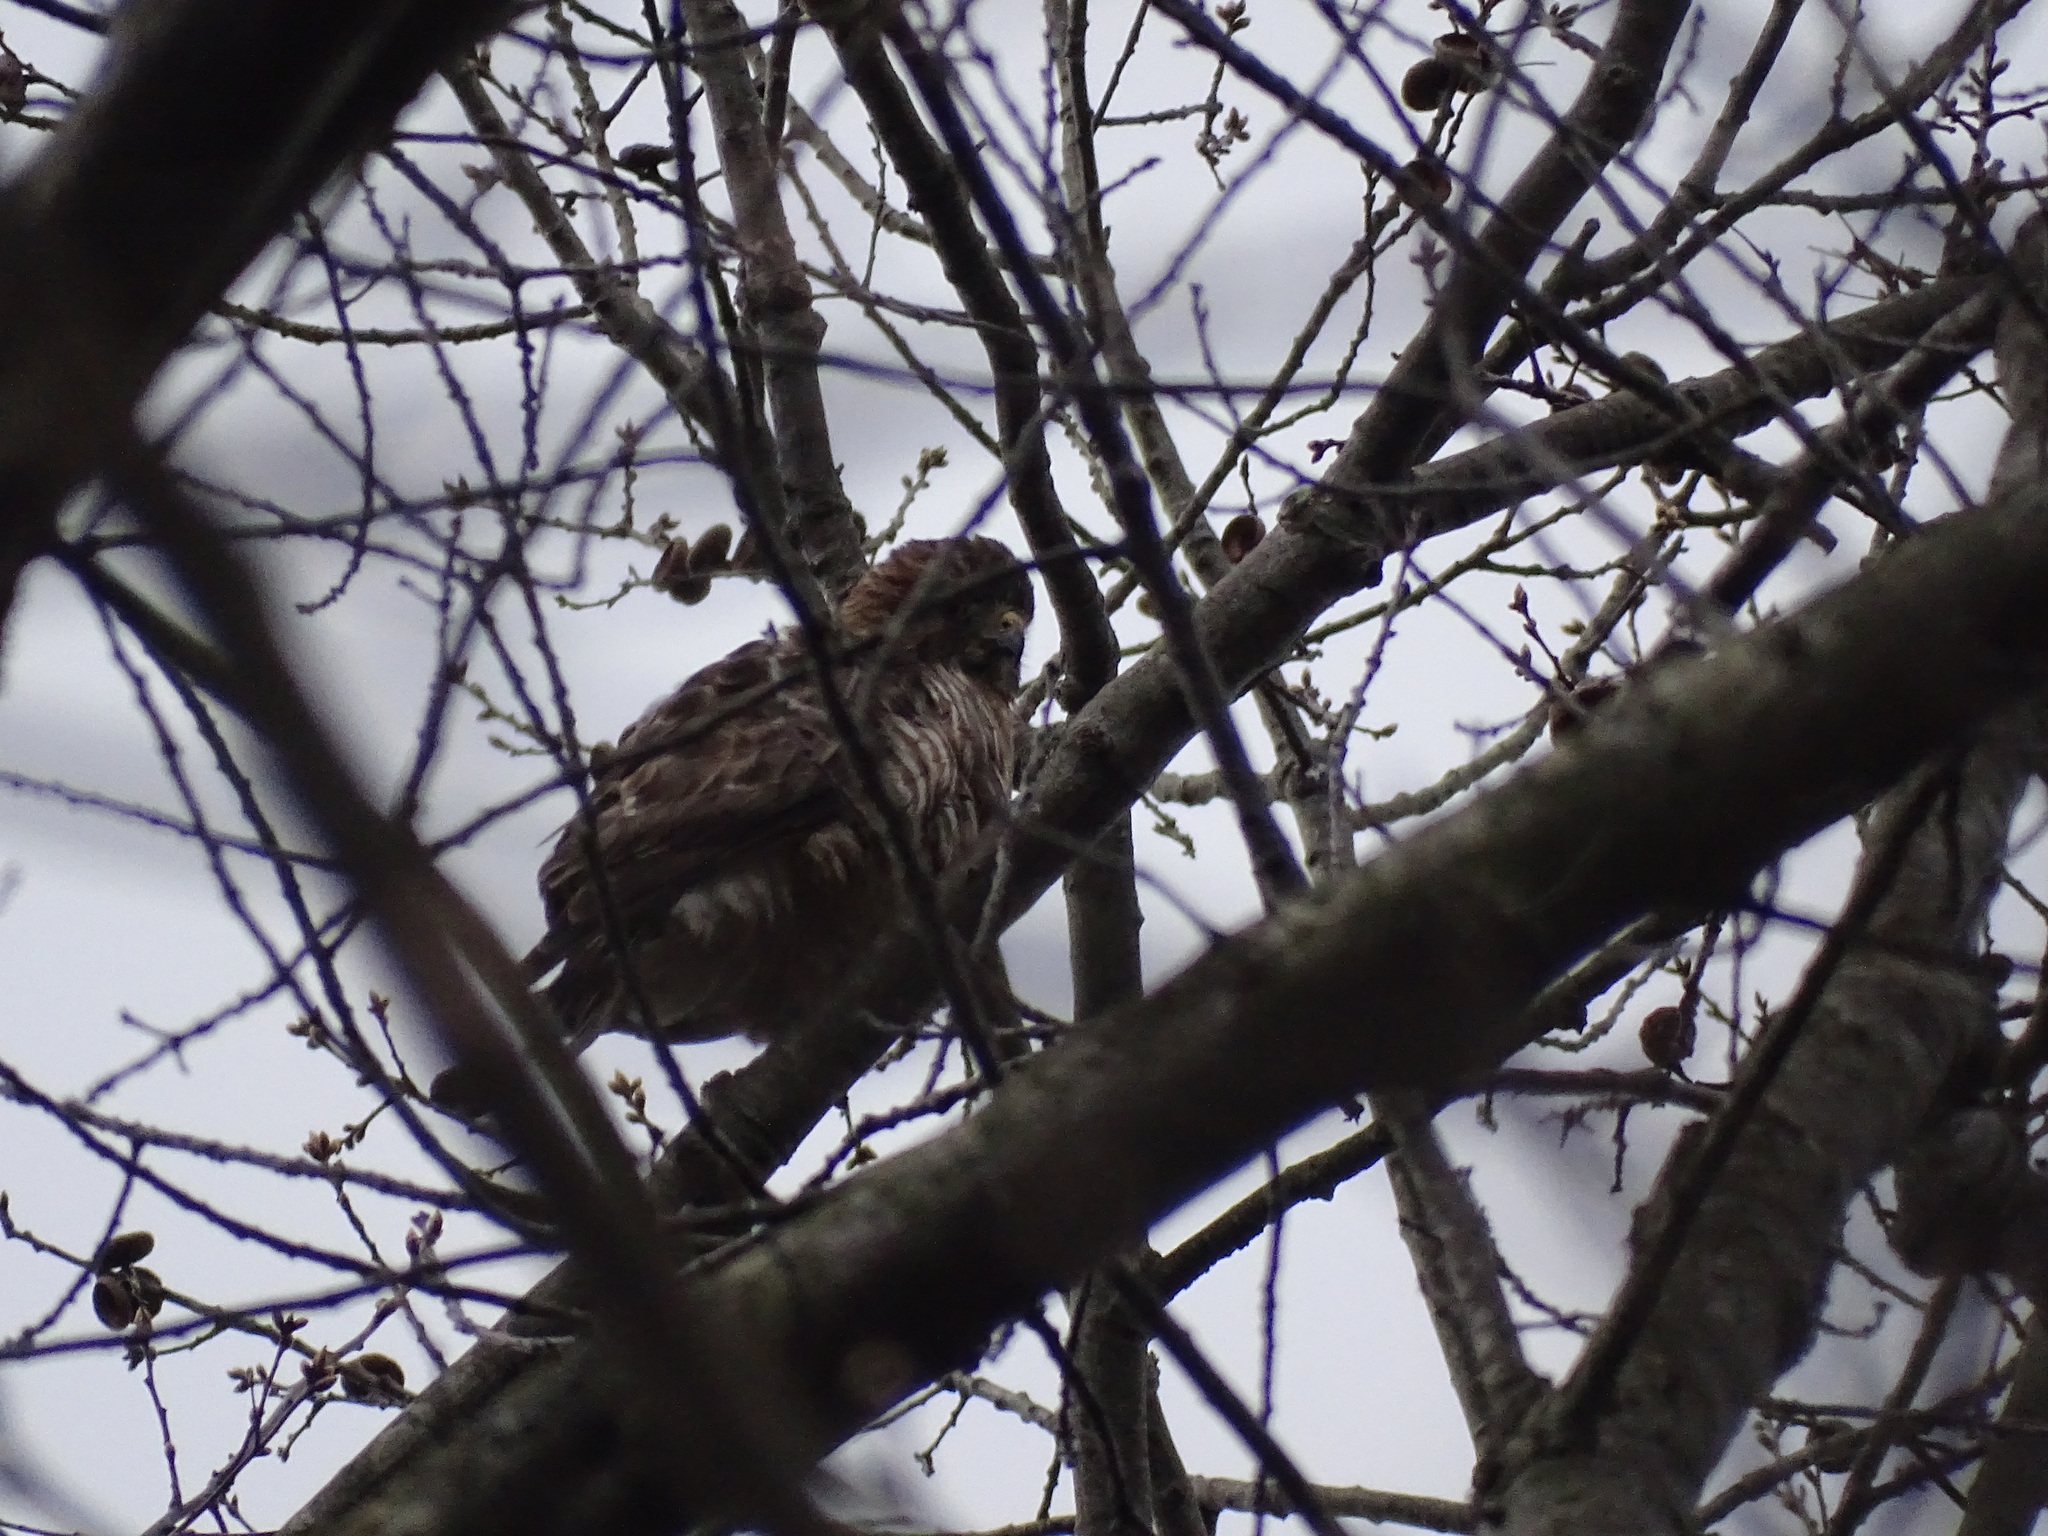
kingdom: Animalia
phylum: Chordata
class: Aves
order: Accipitriformes
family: Accipitridae
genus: Buteo
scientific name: Buteo platypterus
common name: Broad-winged hawk
